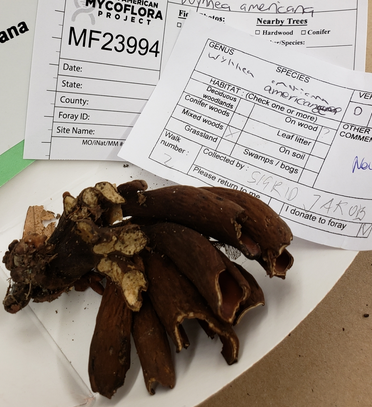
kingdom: Fungi
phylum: Ascomycota
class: Pezizomycetes
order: Pezizales
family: Wynneaceae
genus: Wynnea
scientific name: Wynnea americana
